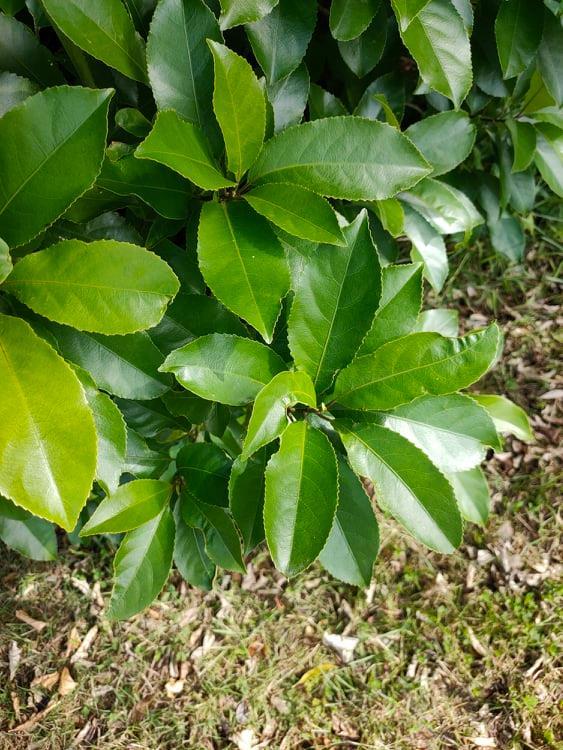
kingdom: Plantae
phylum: Tracheophyta
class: Magnoliopsida
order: Malpighiales
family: Violaceae
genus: Melicytus
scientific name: Melicytus ramiflorus
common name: Mahoe
